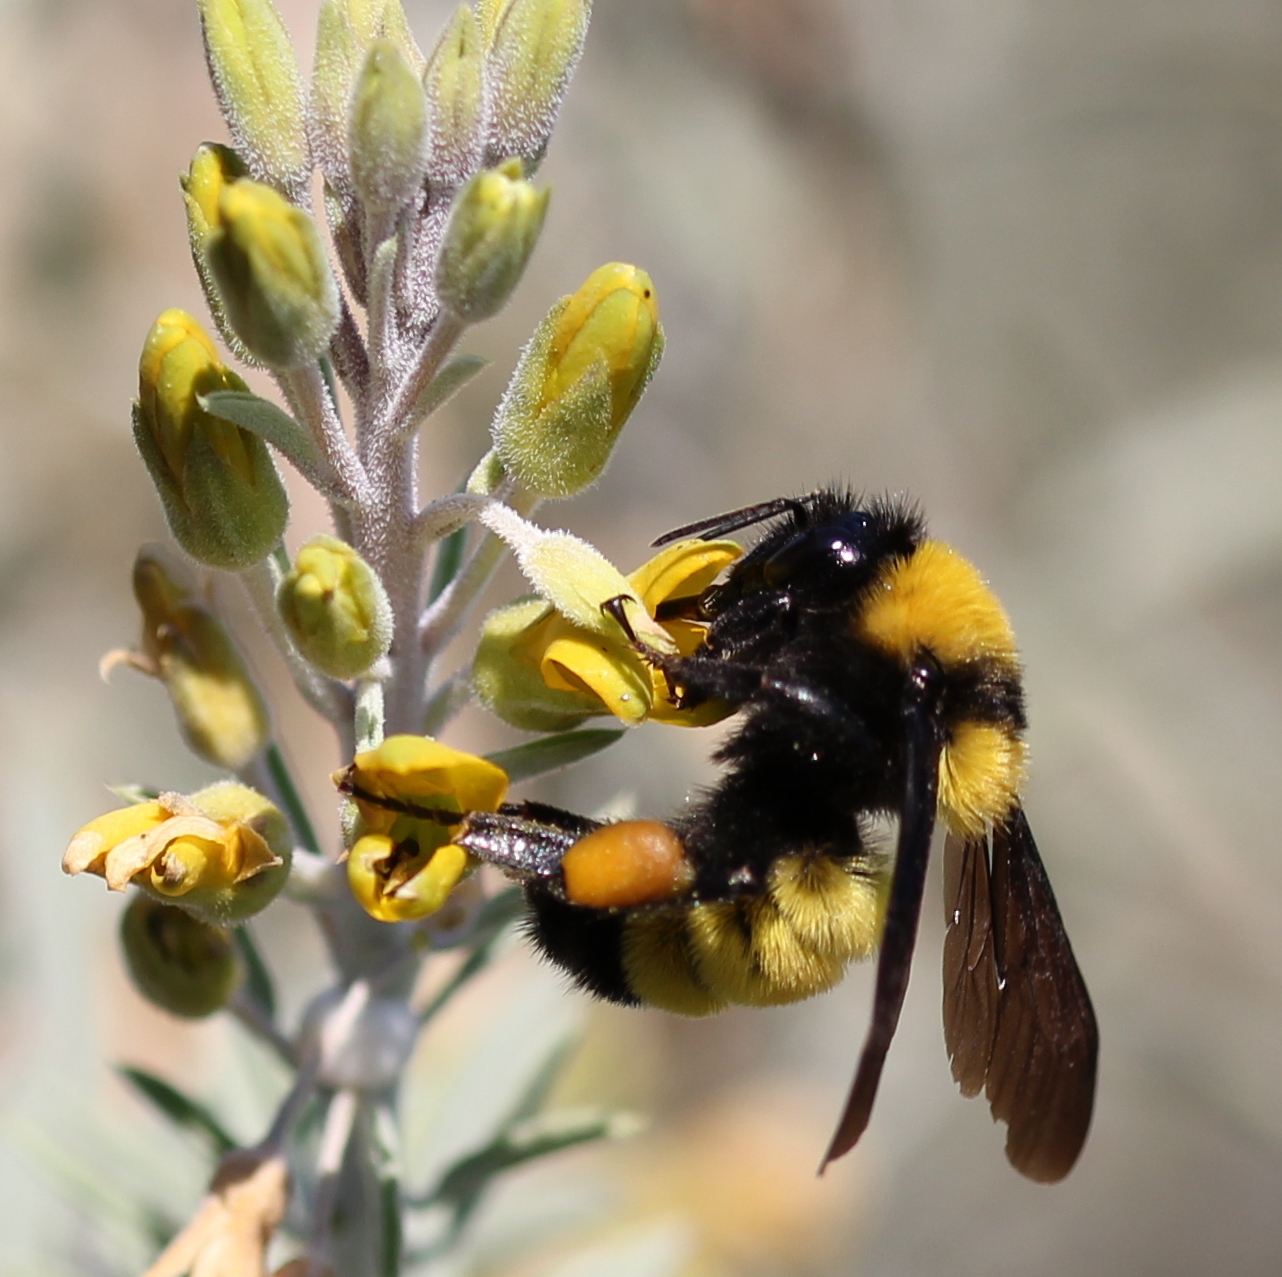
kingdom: Animalia
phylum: Arthropoda
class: Insecta
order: Hymenoptera
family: Apidae
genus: Bombus
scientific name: Bombus sonorus
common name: Sonoran bumble bee
